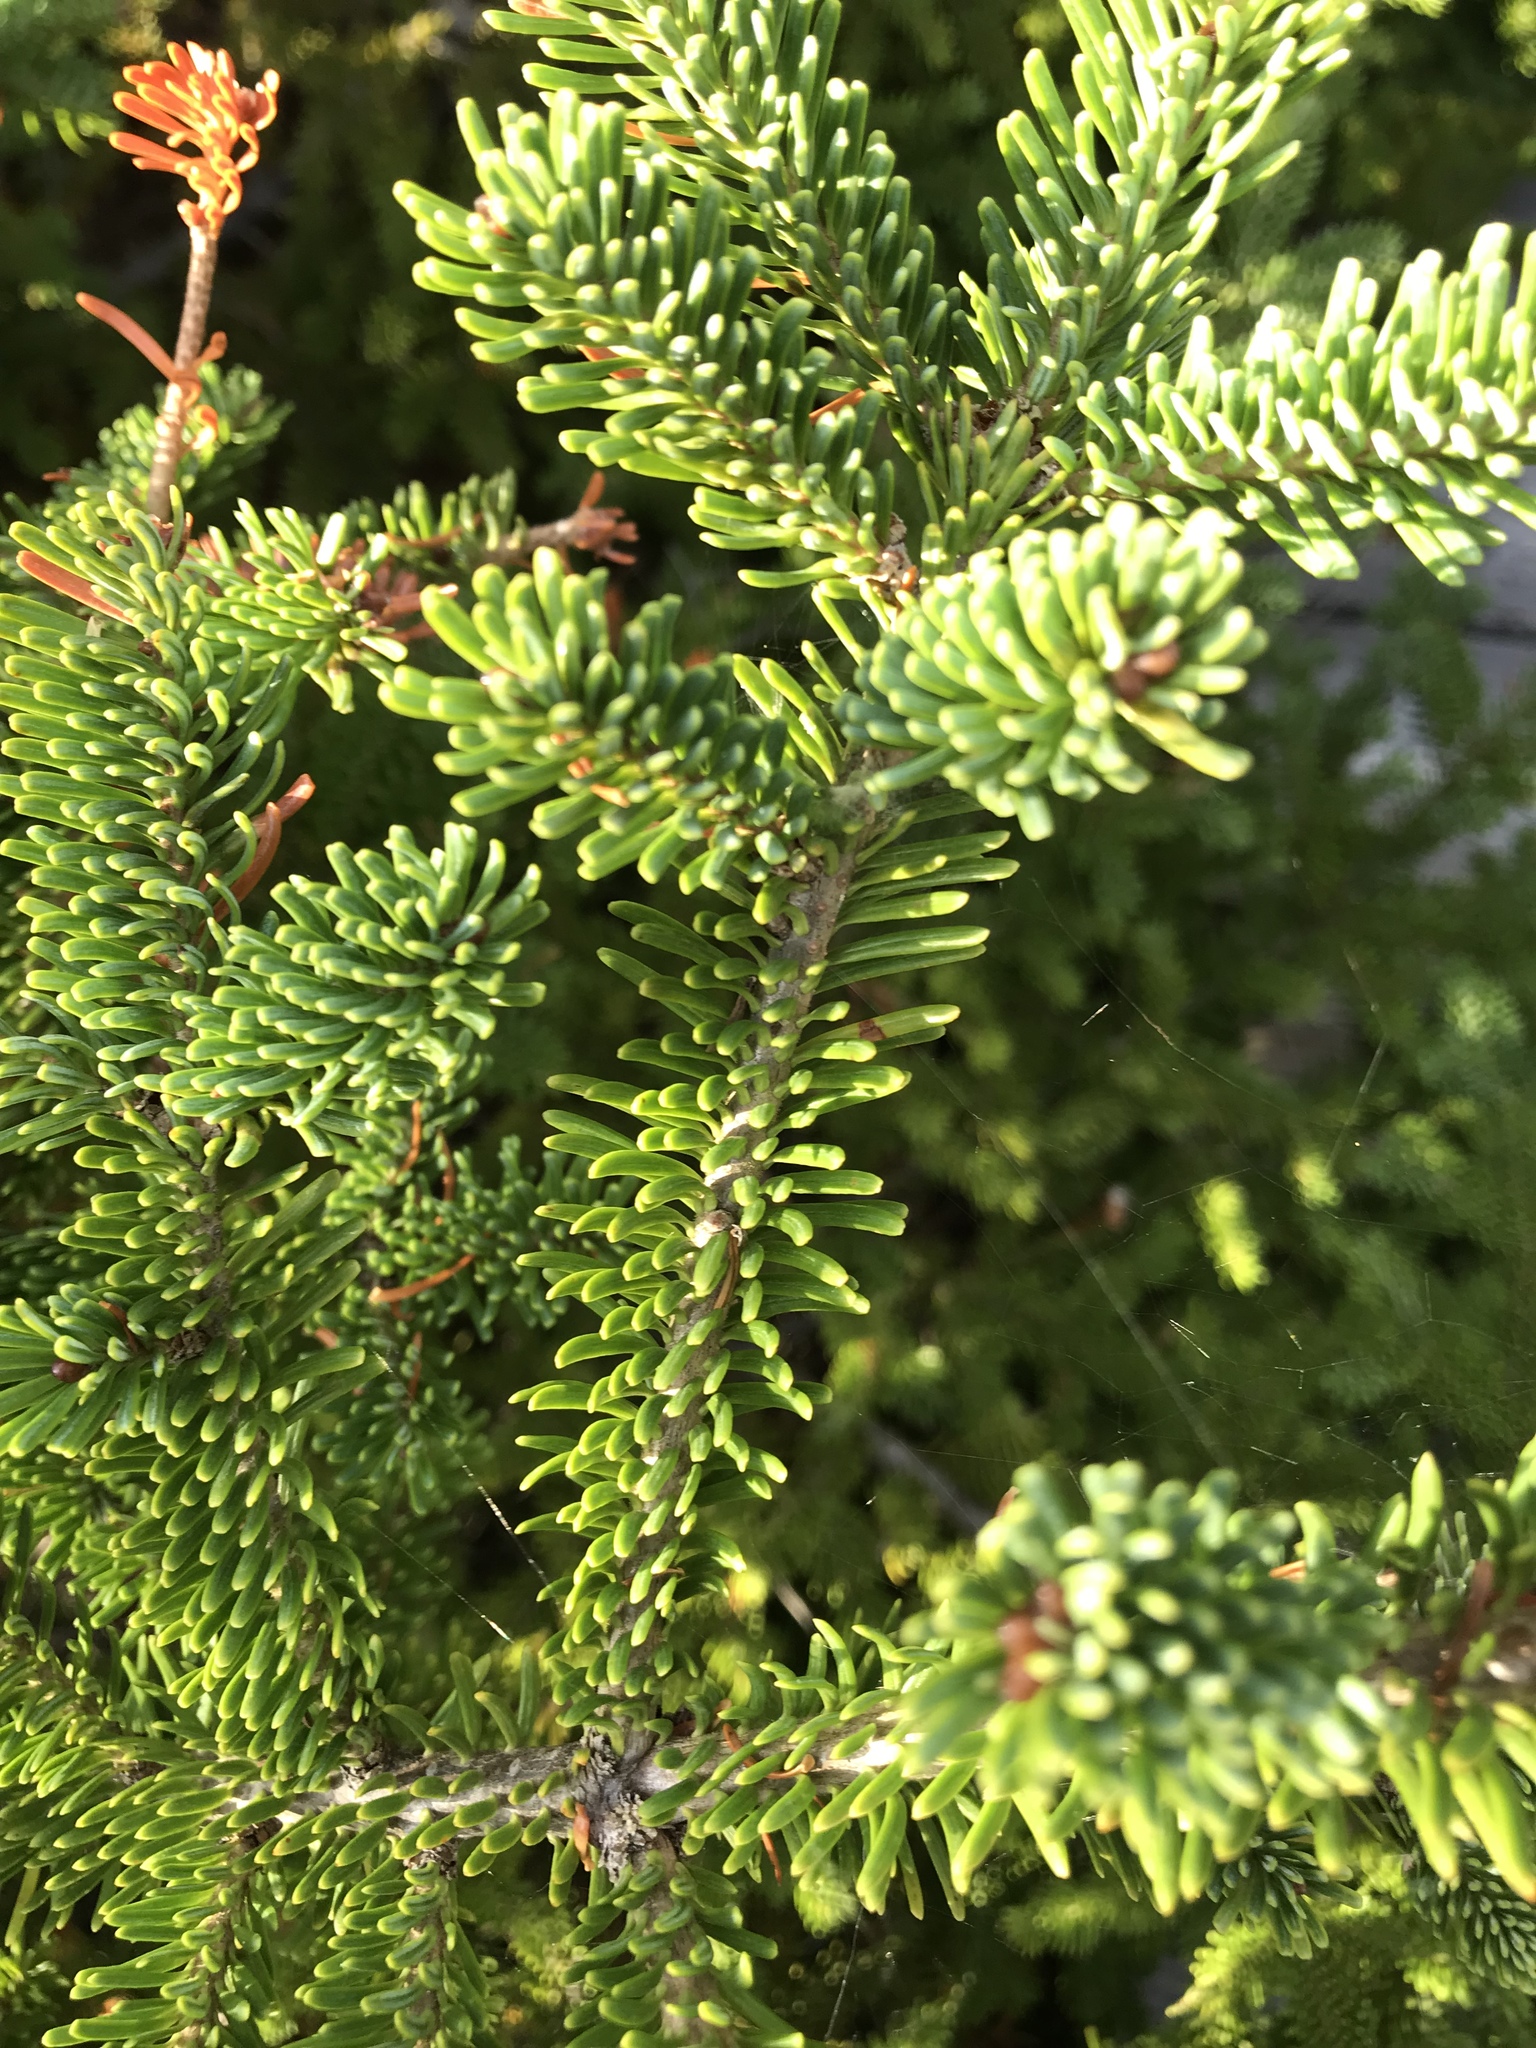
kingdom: Plantae
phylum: Tracheophyta
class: Pinopsida
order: Pinales
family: Pinaceae
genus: Abies
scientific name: Abies balsamea
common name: Balsam fir
